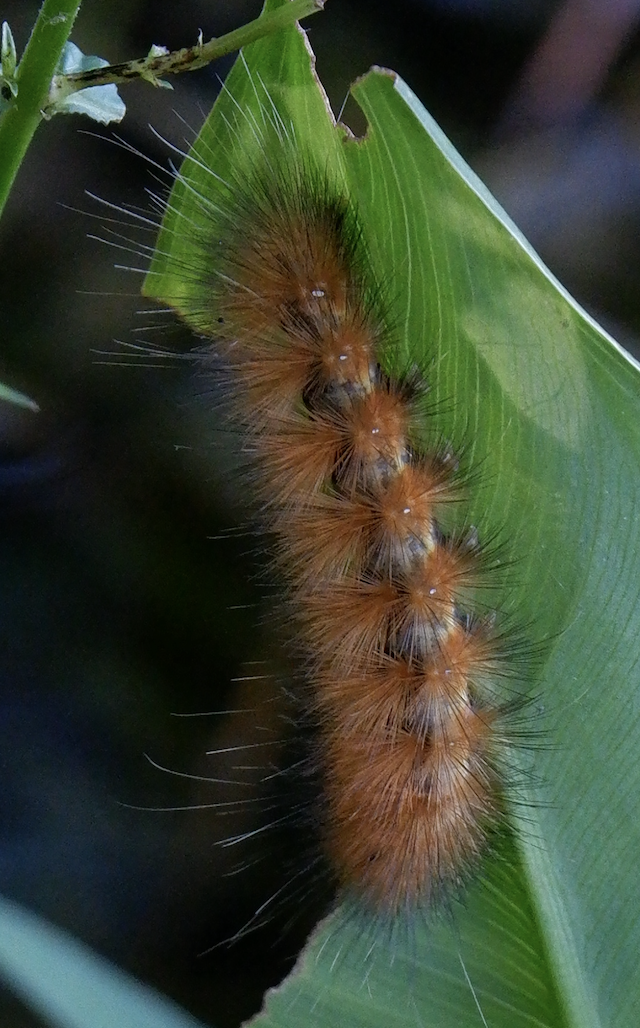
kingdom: Animalia
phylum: Arthropoda
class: Insecta
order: Lepidoptera
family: Erebidae
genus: Spilosoma
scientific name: Spilosoma virginica
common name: Virginia tiger moth
